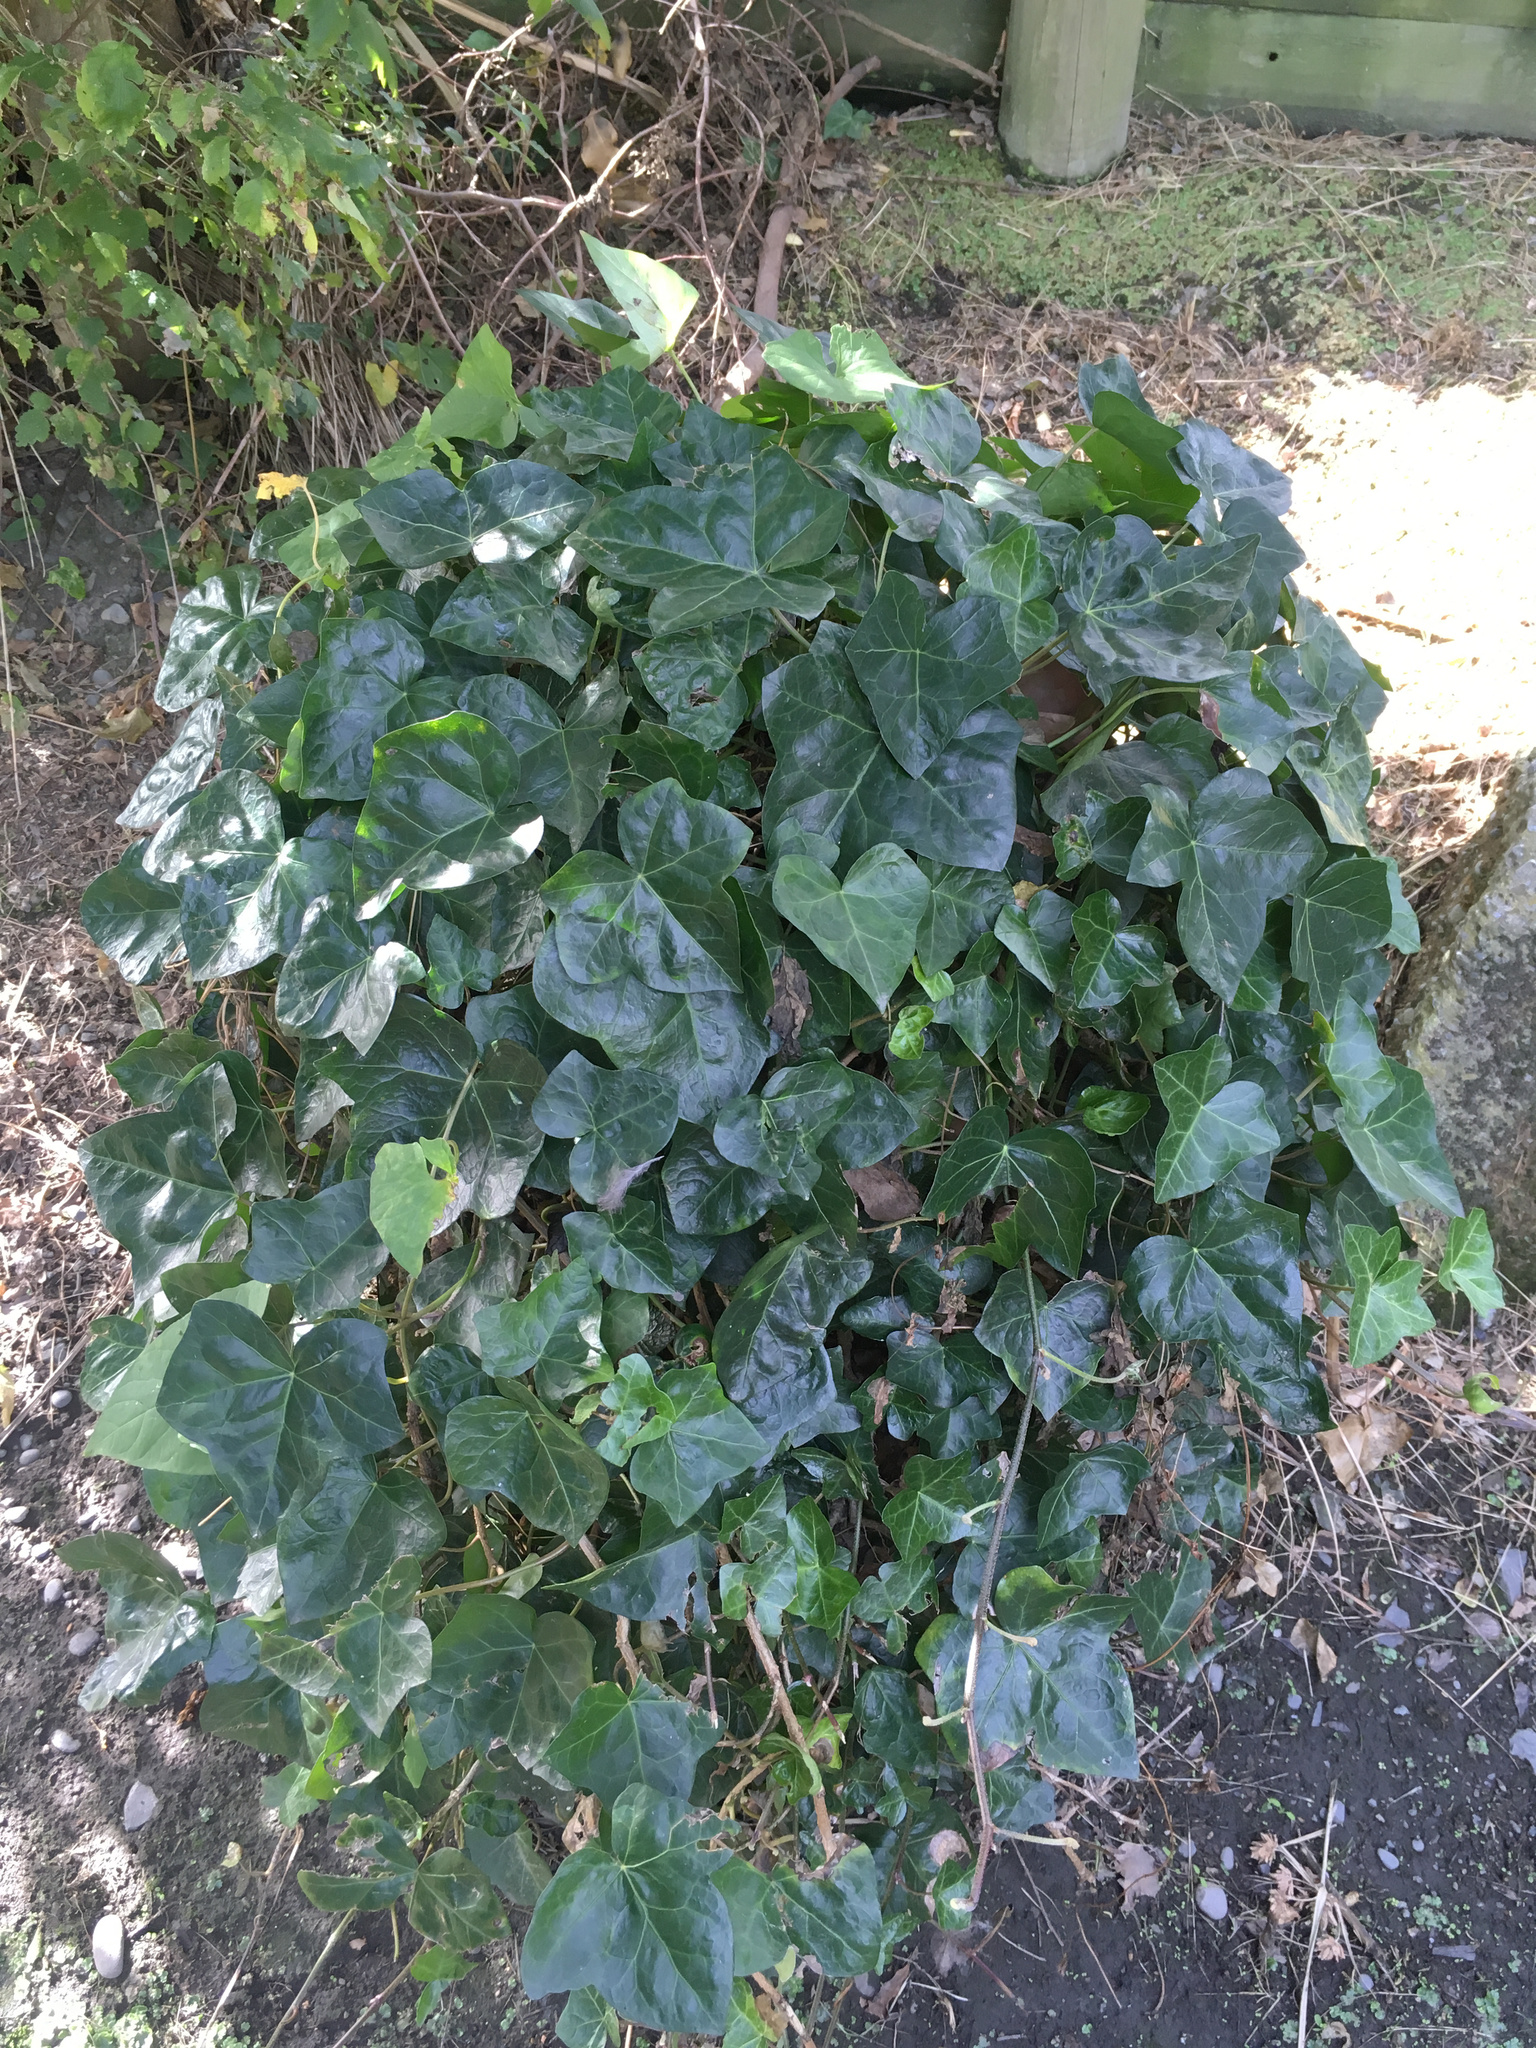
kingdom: Plantae
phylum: Tracheophyta
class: Magnoliopsida
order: Apiales
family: Araliaceae
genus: Hedera
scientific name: Hedera helix
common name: Ivy
